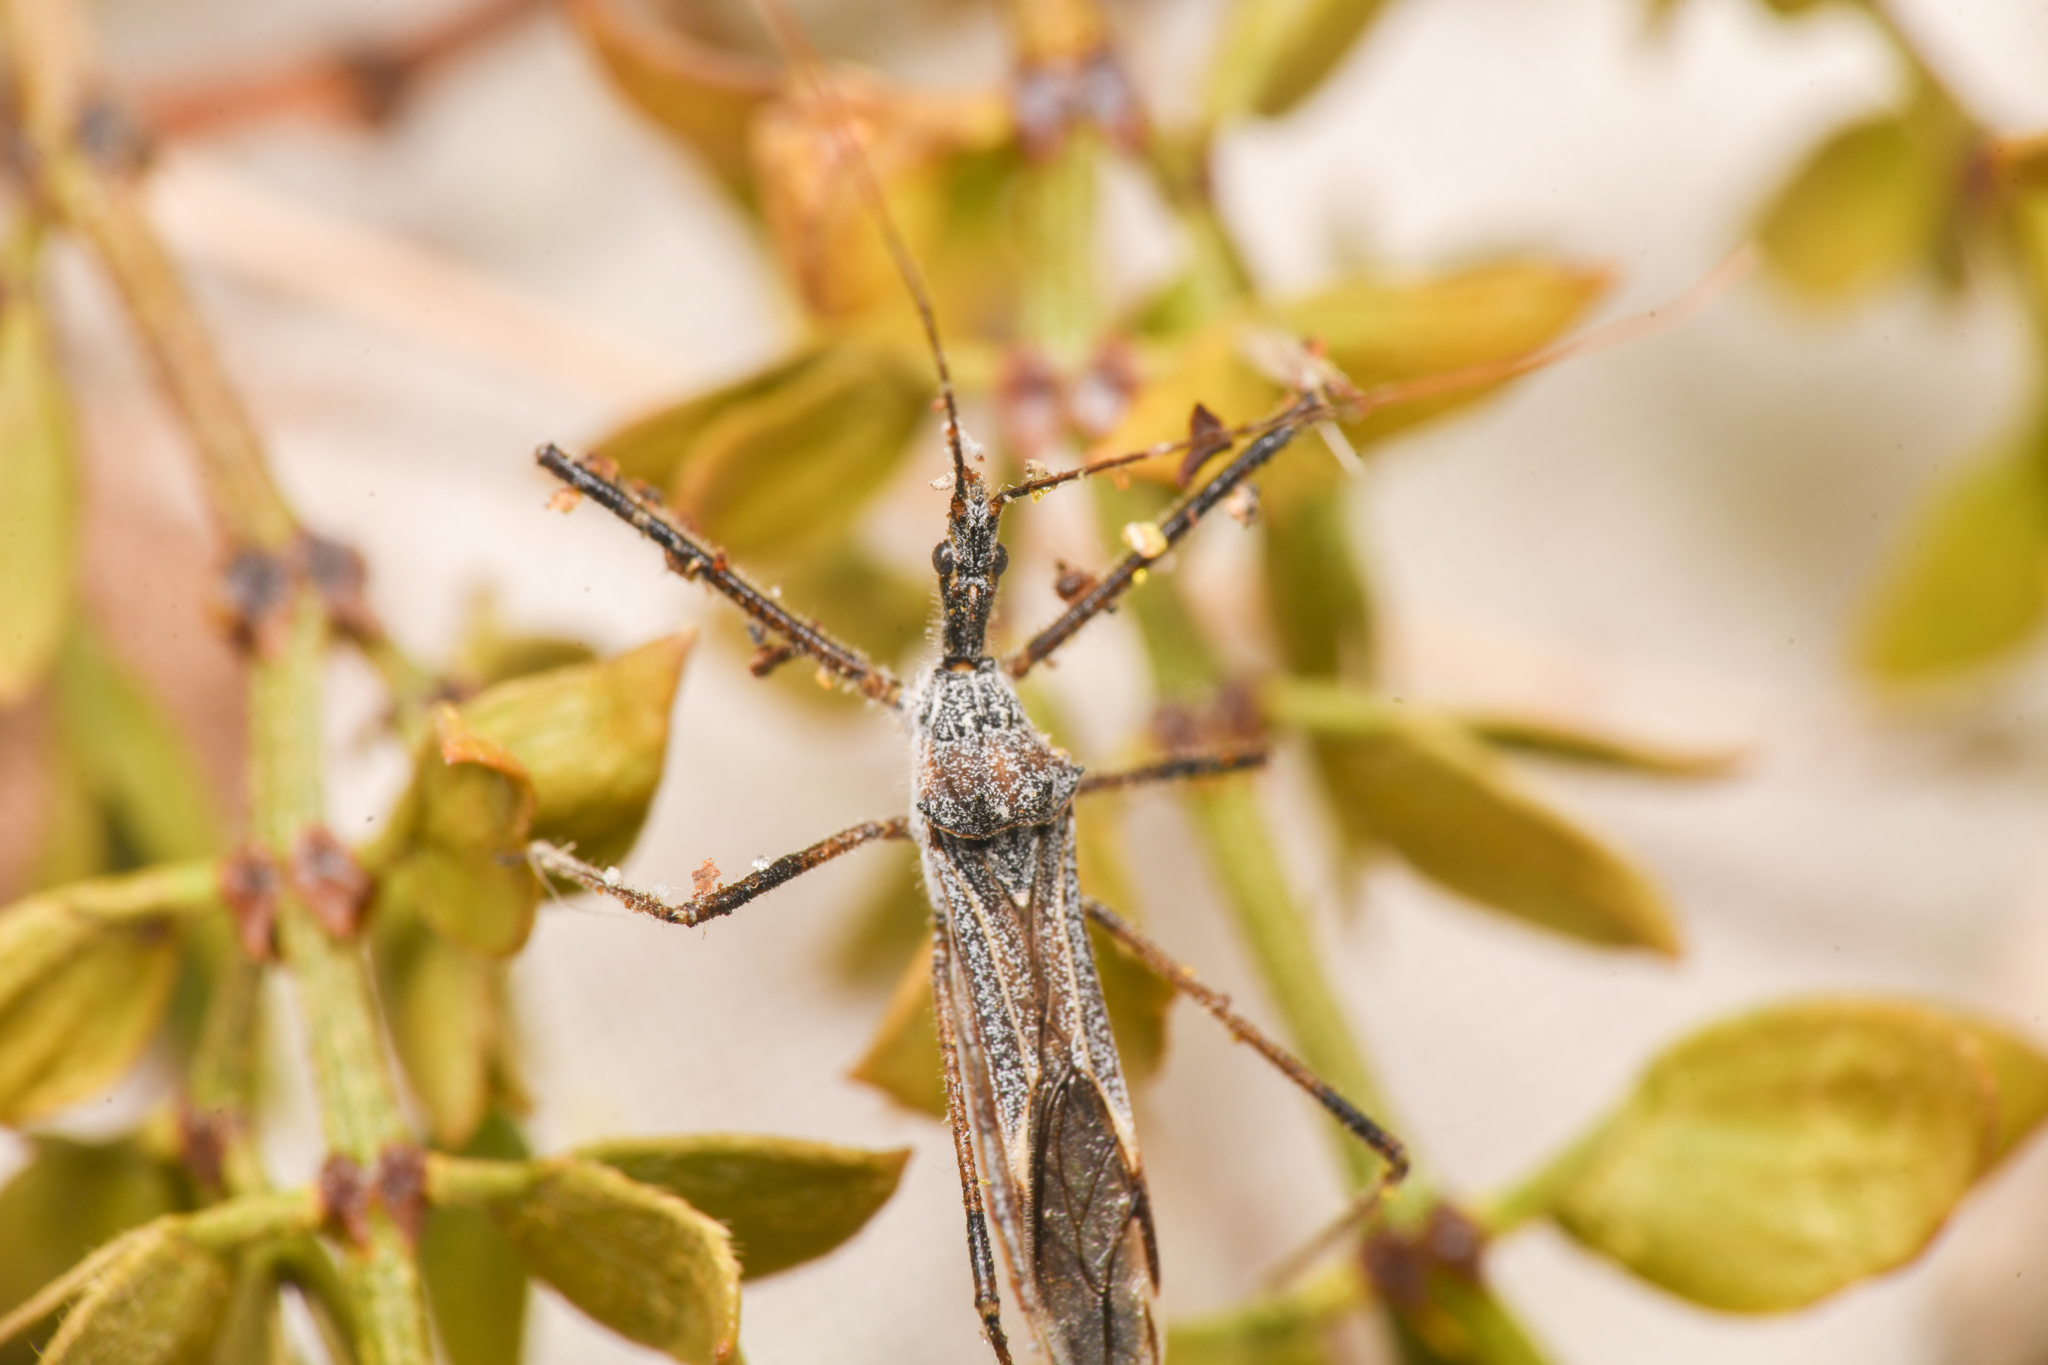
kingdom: Animalia
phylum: Arthropoda
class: Insecta
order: Hemiptera
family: Reduviidae
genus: Zelus
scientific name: Zelus tetracanthus
